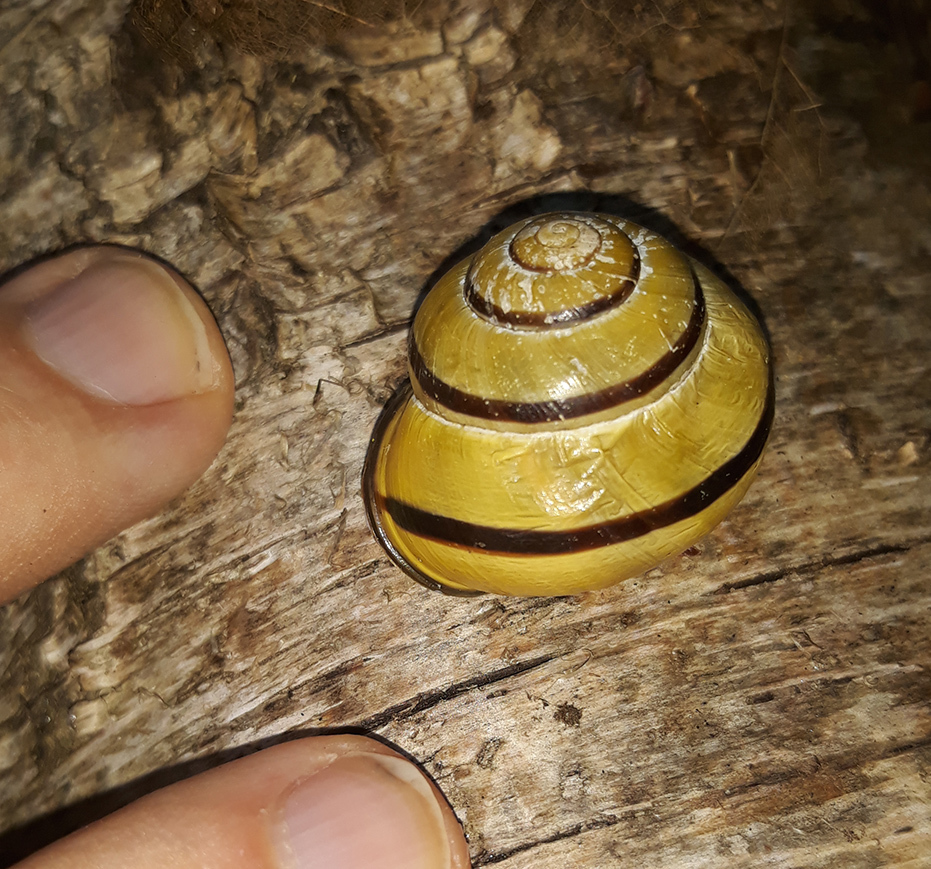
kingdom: Animalia
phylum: Mollusca
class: Gastropoda
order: Stylommatophora
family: Helicidae
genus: Cepaea
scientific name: Cepaea nemoralis
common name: Grovesnail
